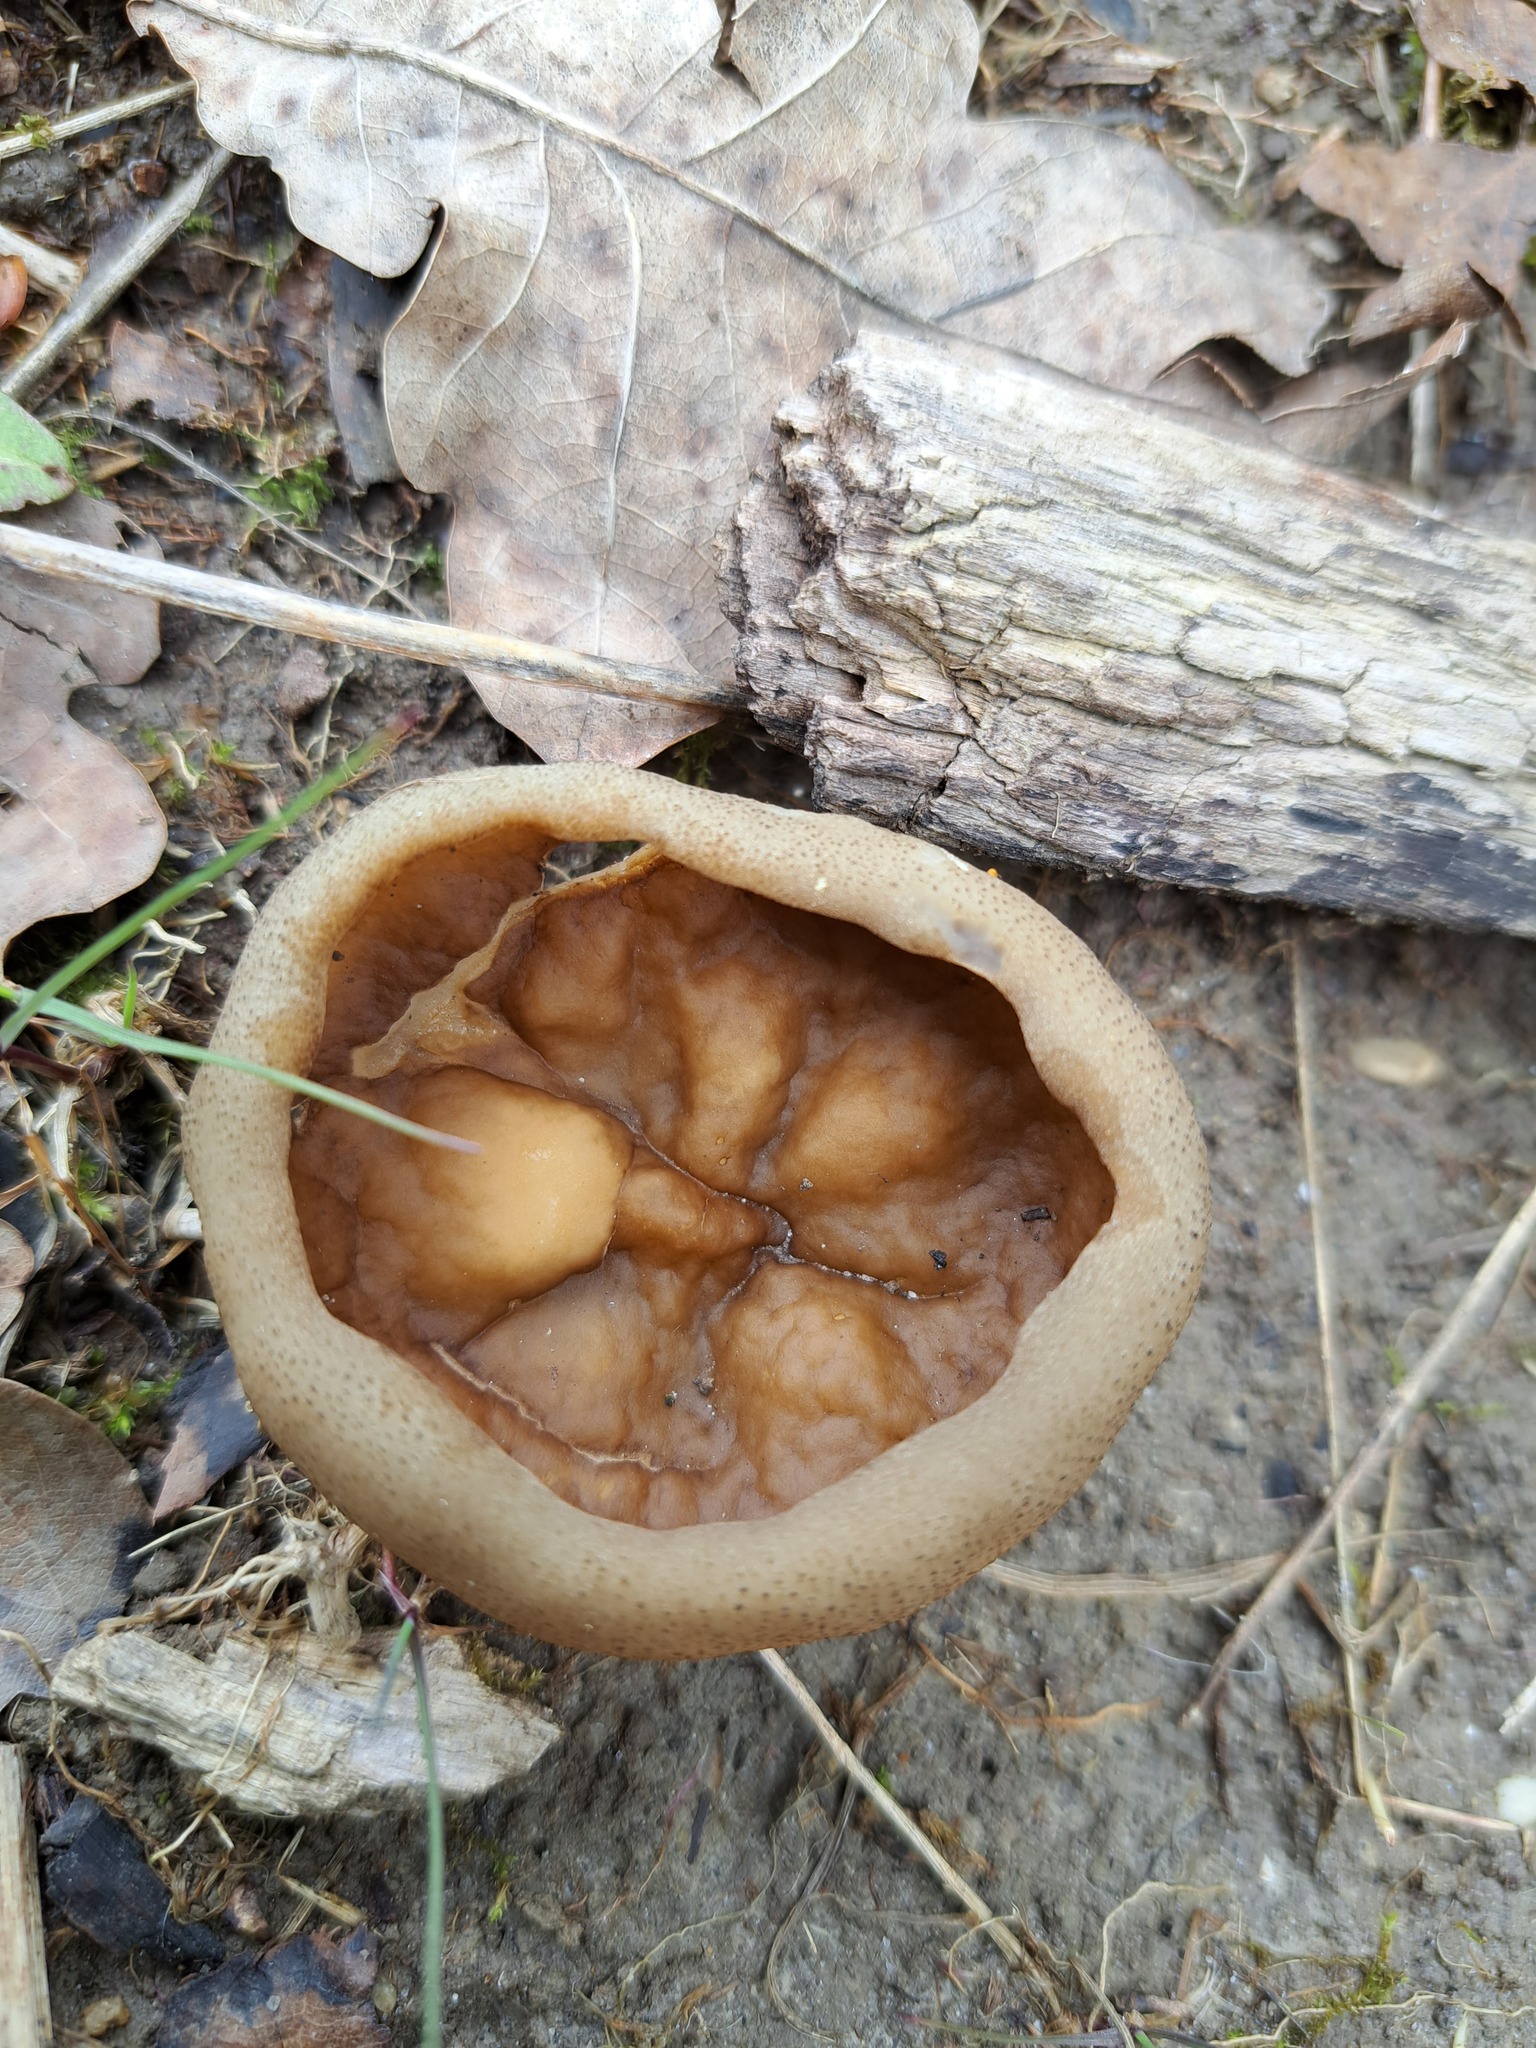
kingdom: Fungi
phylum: Ascomycota
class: Pezizomycetes
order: Pezizales
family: Morchellaceae
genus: Disciotis
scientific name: Disciotis venosa
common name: Bleach cup
